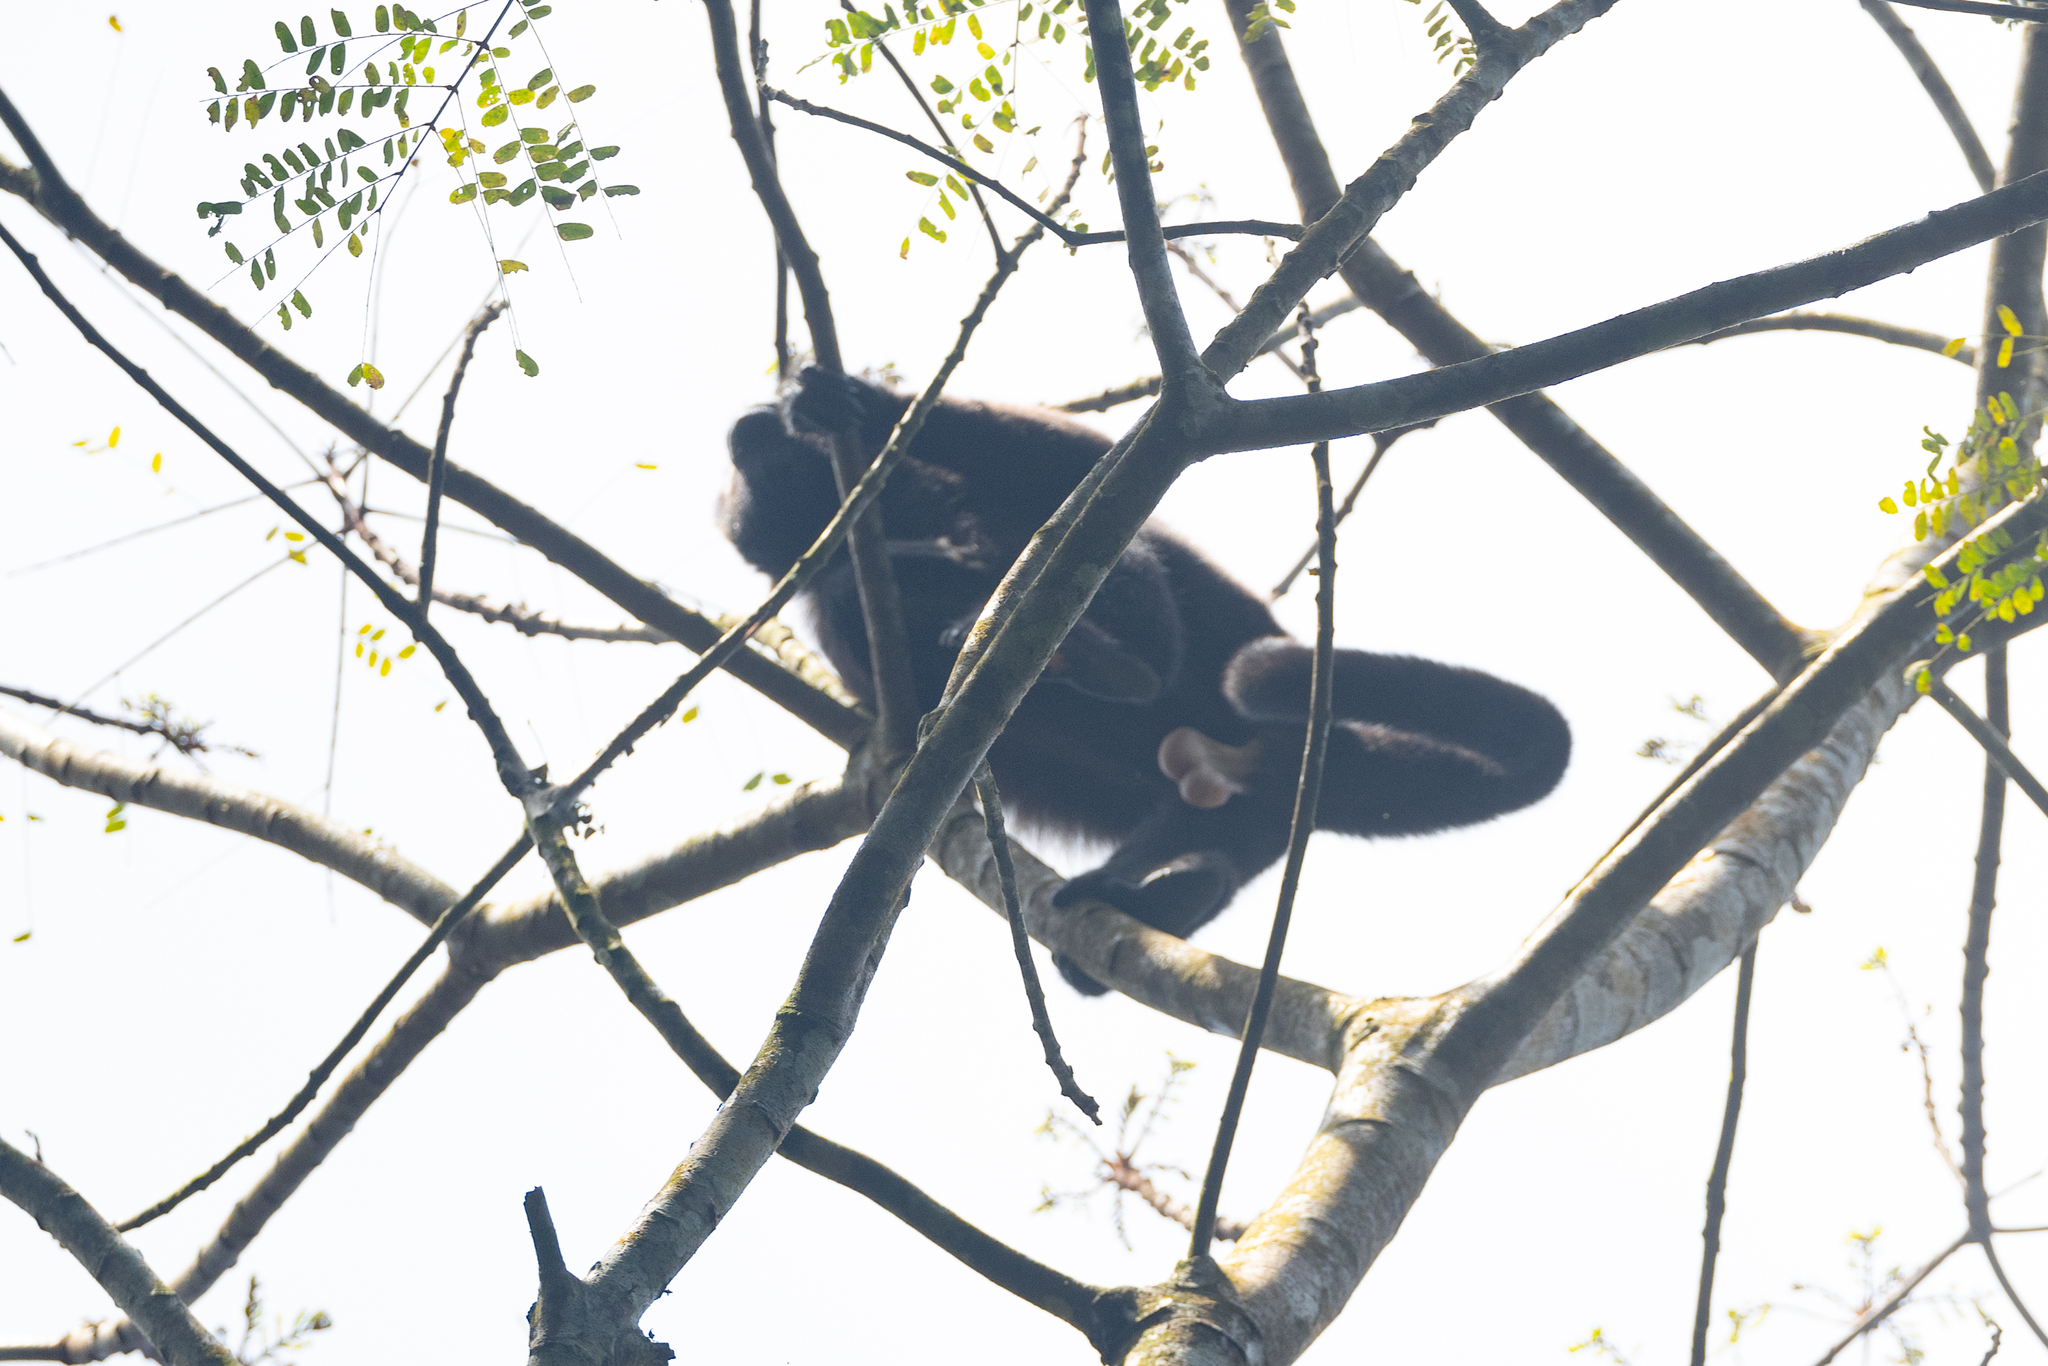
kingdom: Animalia
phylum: Chordata
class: Mammalia
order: Primates
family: Atelidae
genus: Alouatta
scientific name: Alouatta palliata
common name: Mantled howler
